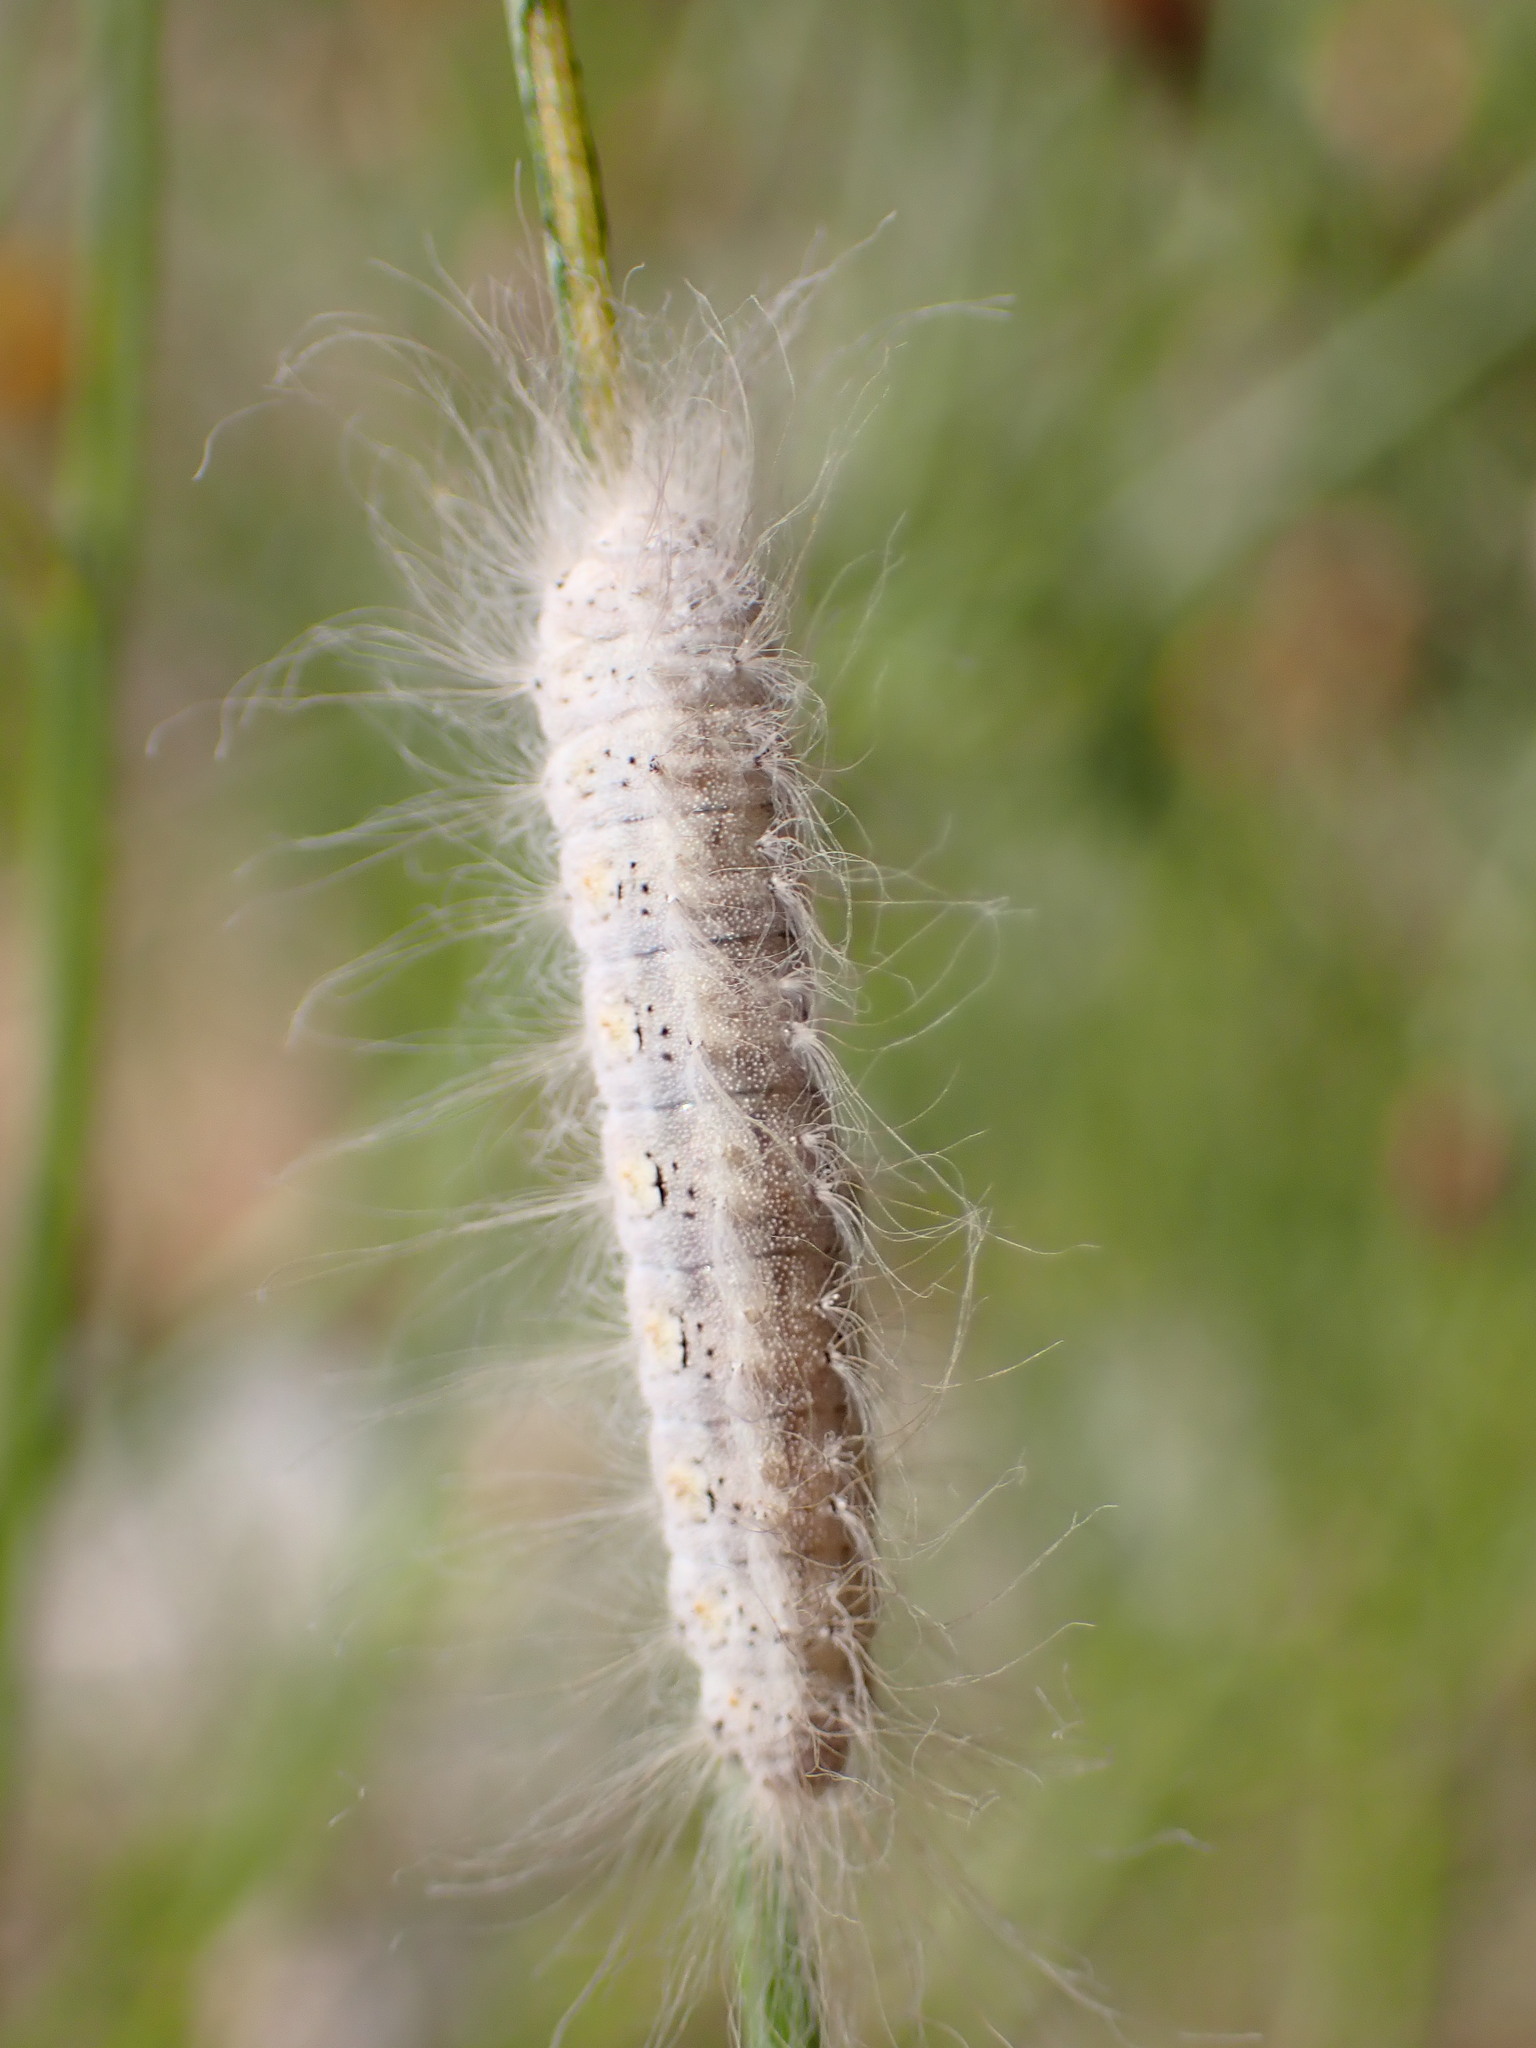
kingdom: Animalia
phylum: Arthropoda
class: Insecta
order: Lepidoptera
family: Lycaenidae
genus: Emesis
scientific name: Emesis wrighti
